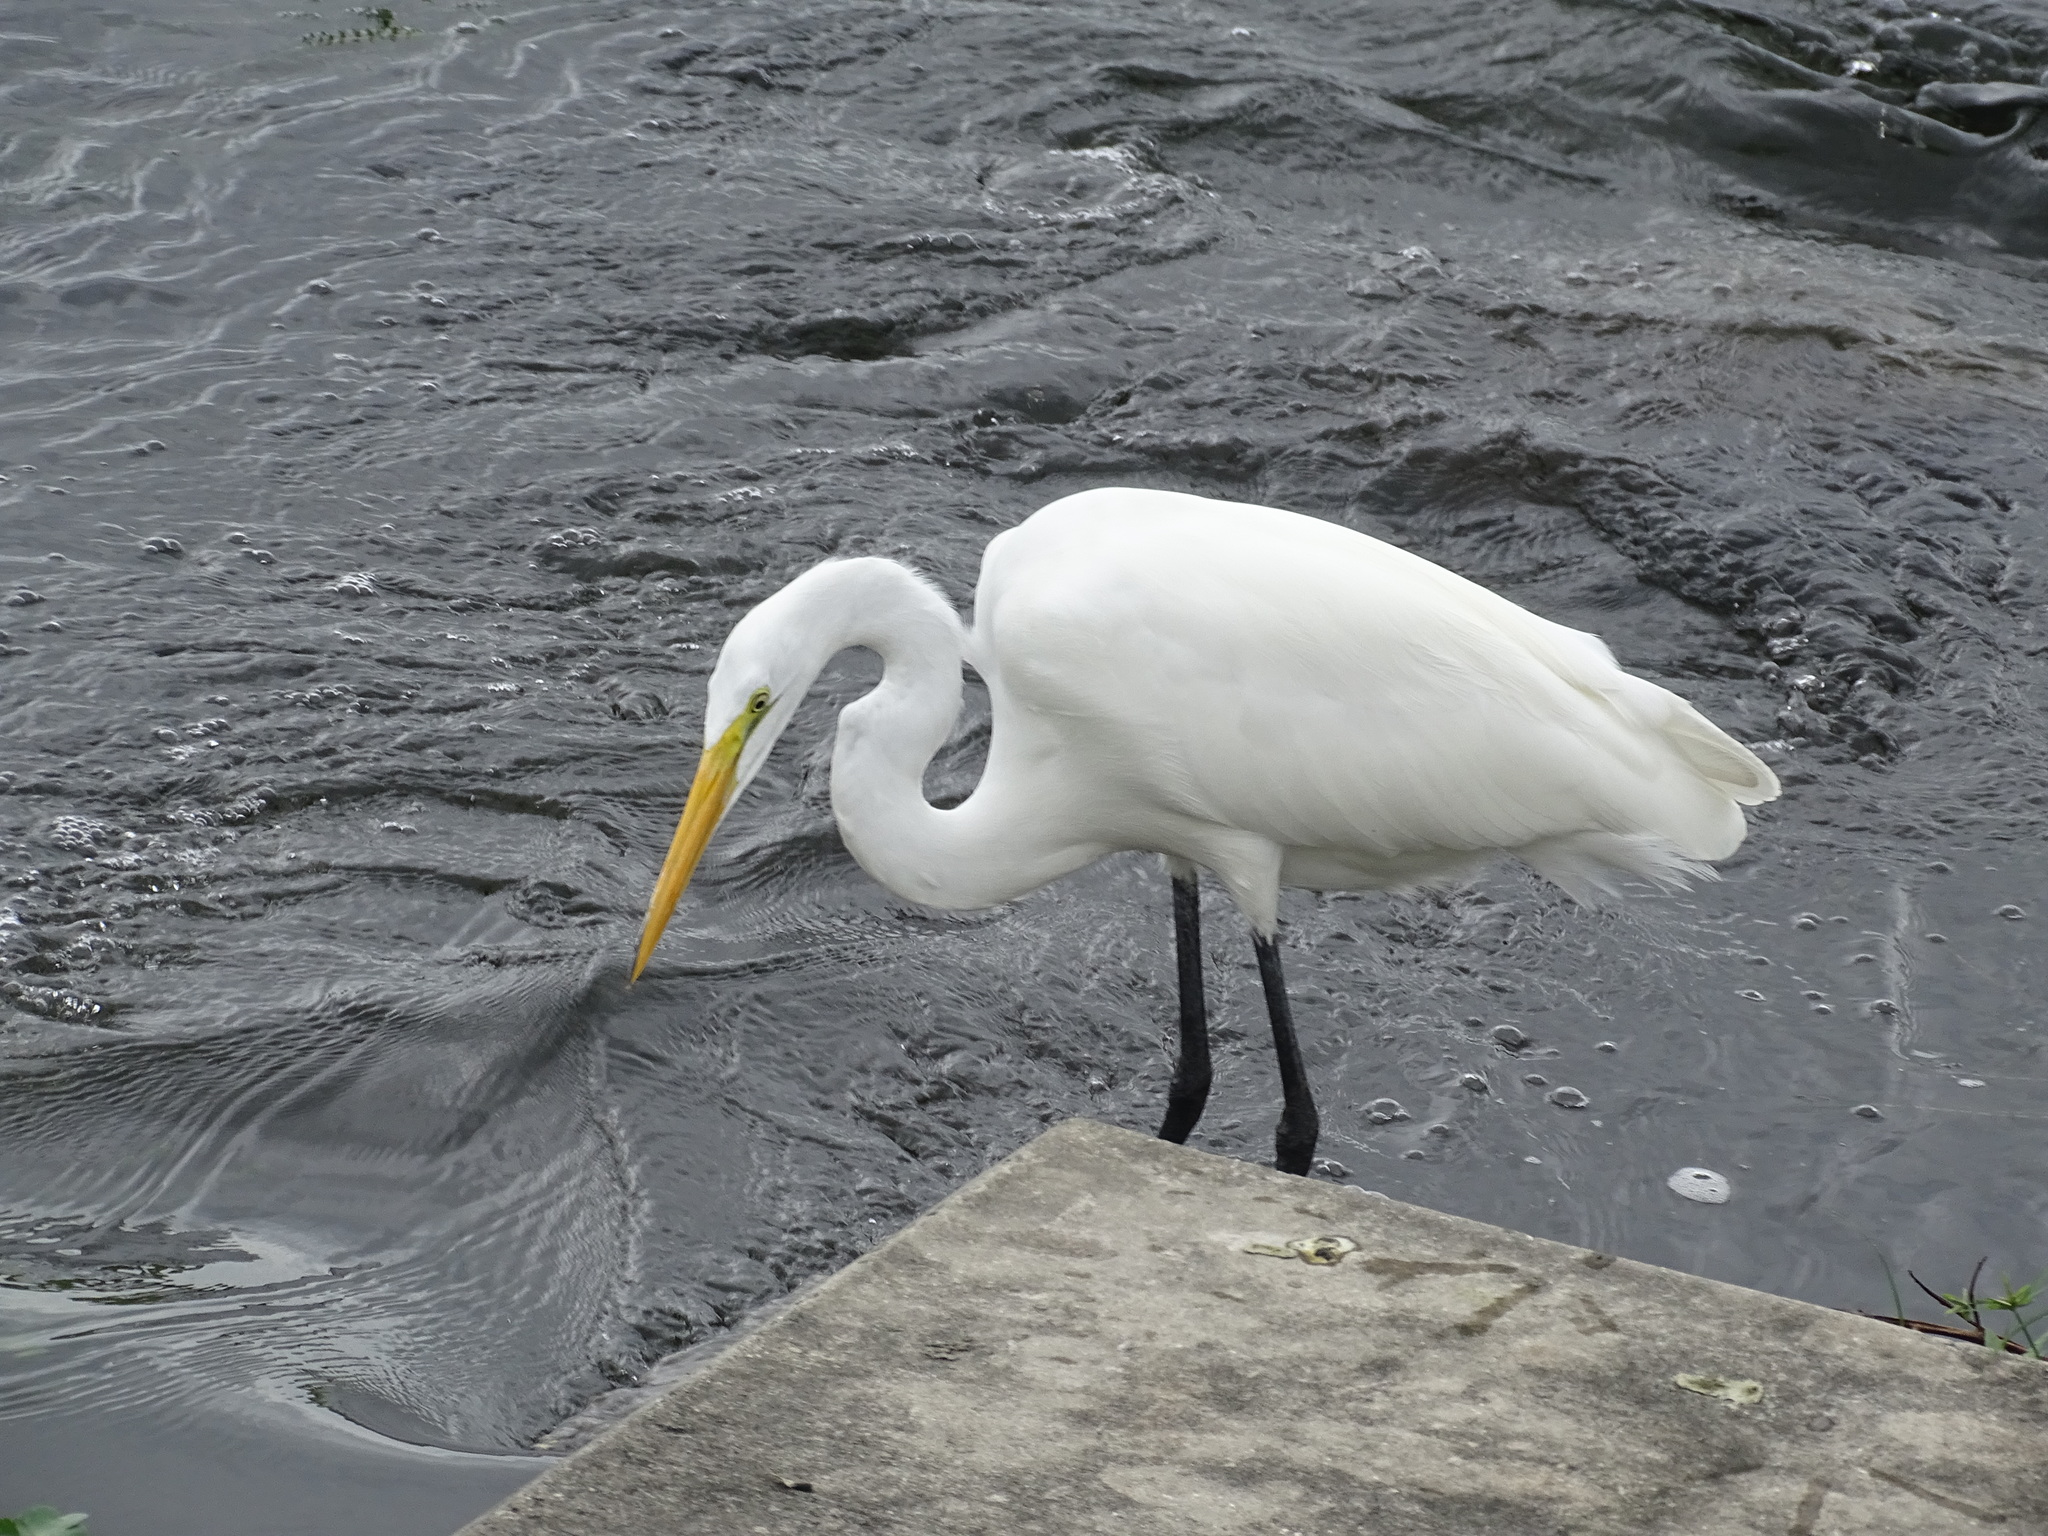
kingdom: Animalia
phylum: Chordata
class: Aves
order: Pelecaniformes
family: Ardeidae
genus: Ardea
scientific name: Ardea alba
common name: Great egret
